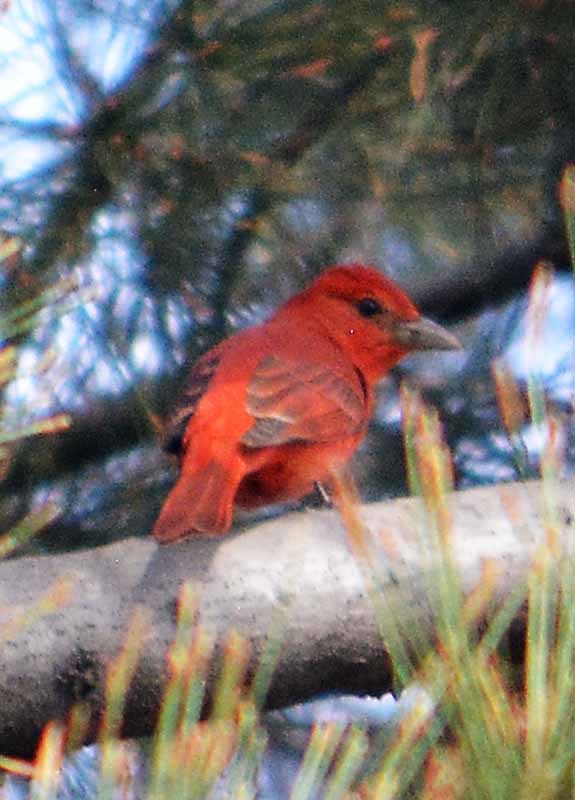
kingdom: Animalia
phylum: Chordata
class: Aves
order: Passeriformes
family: Cardinalidae
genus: Piranga
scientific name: Piranga rubra
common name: Summer tanager
